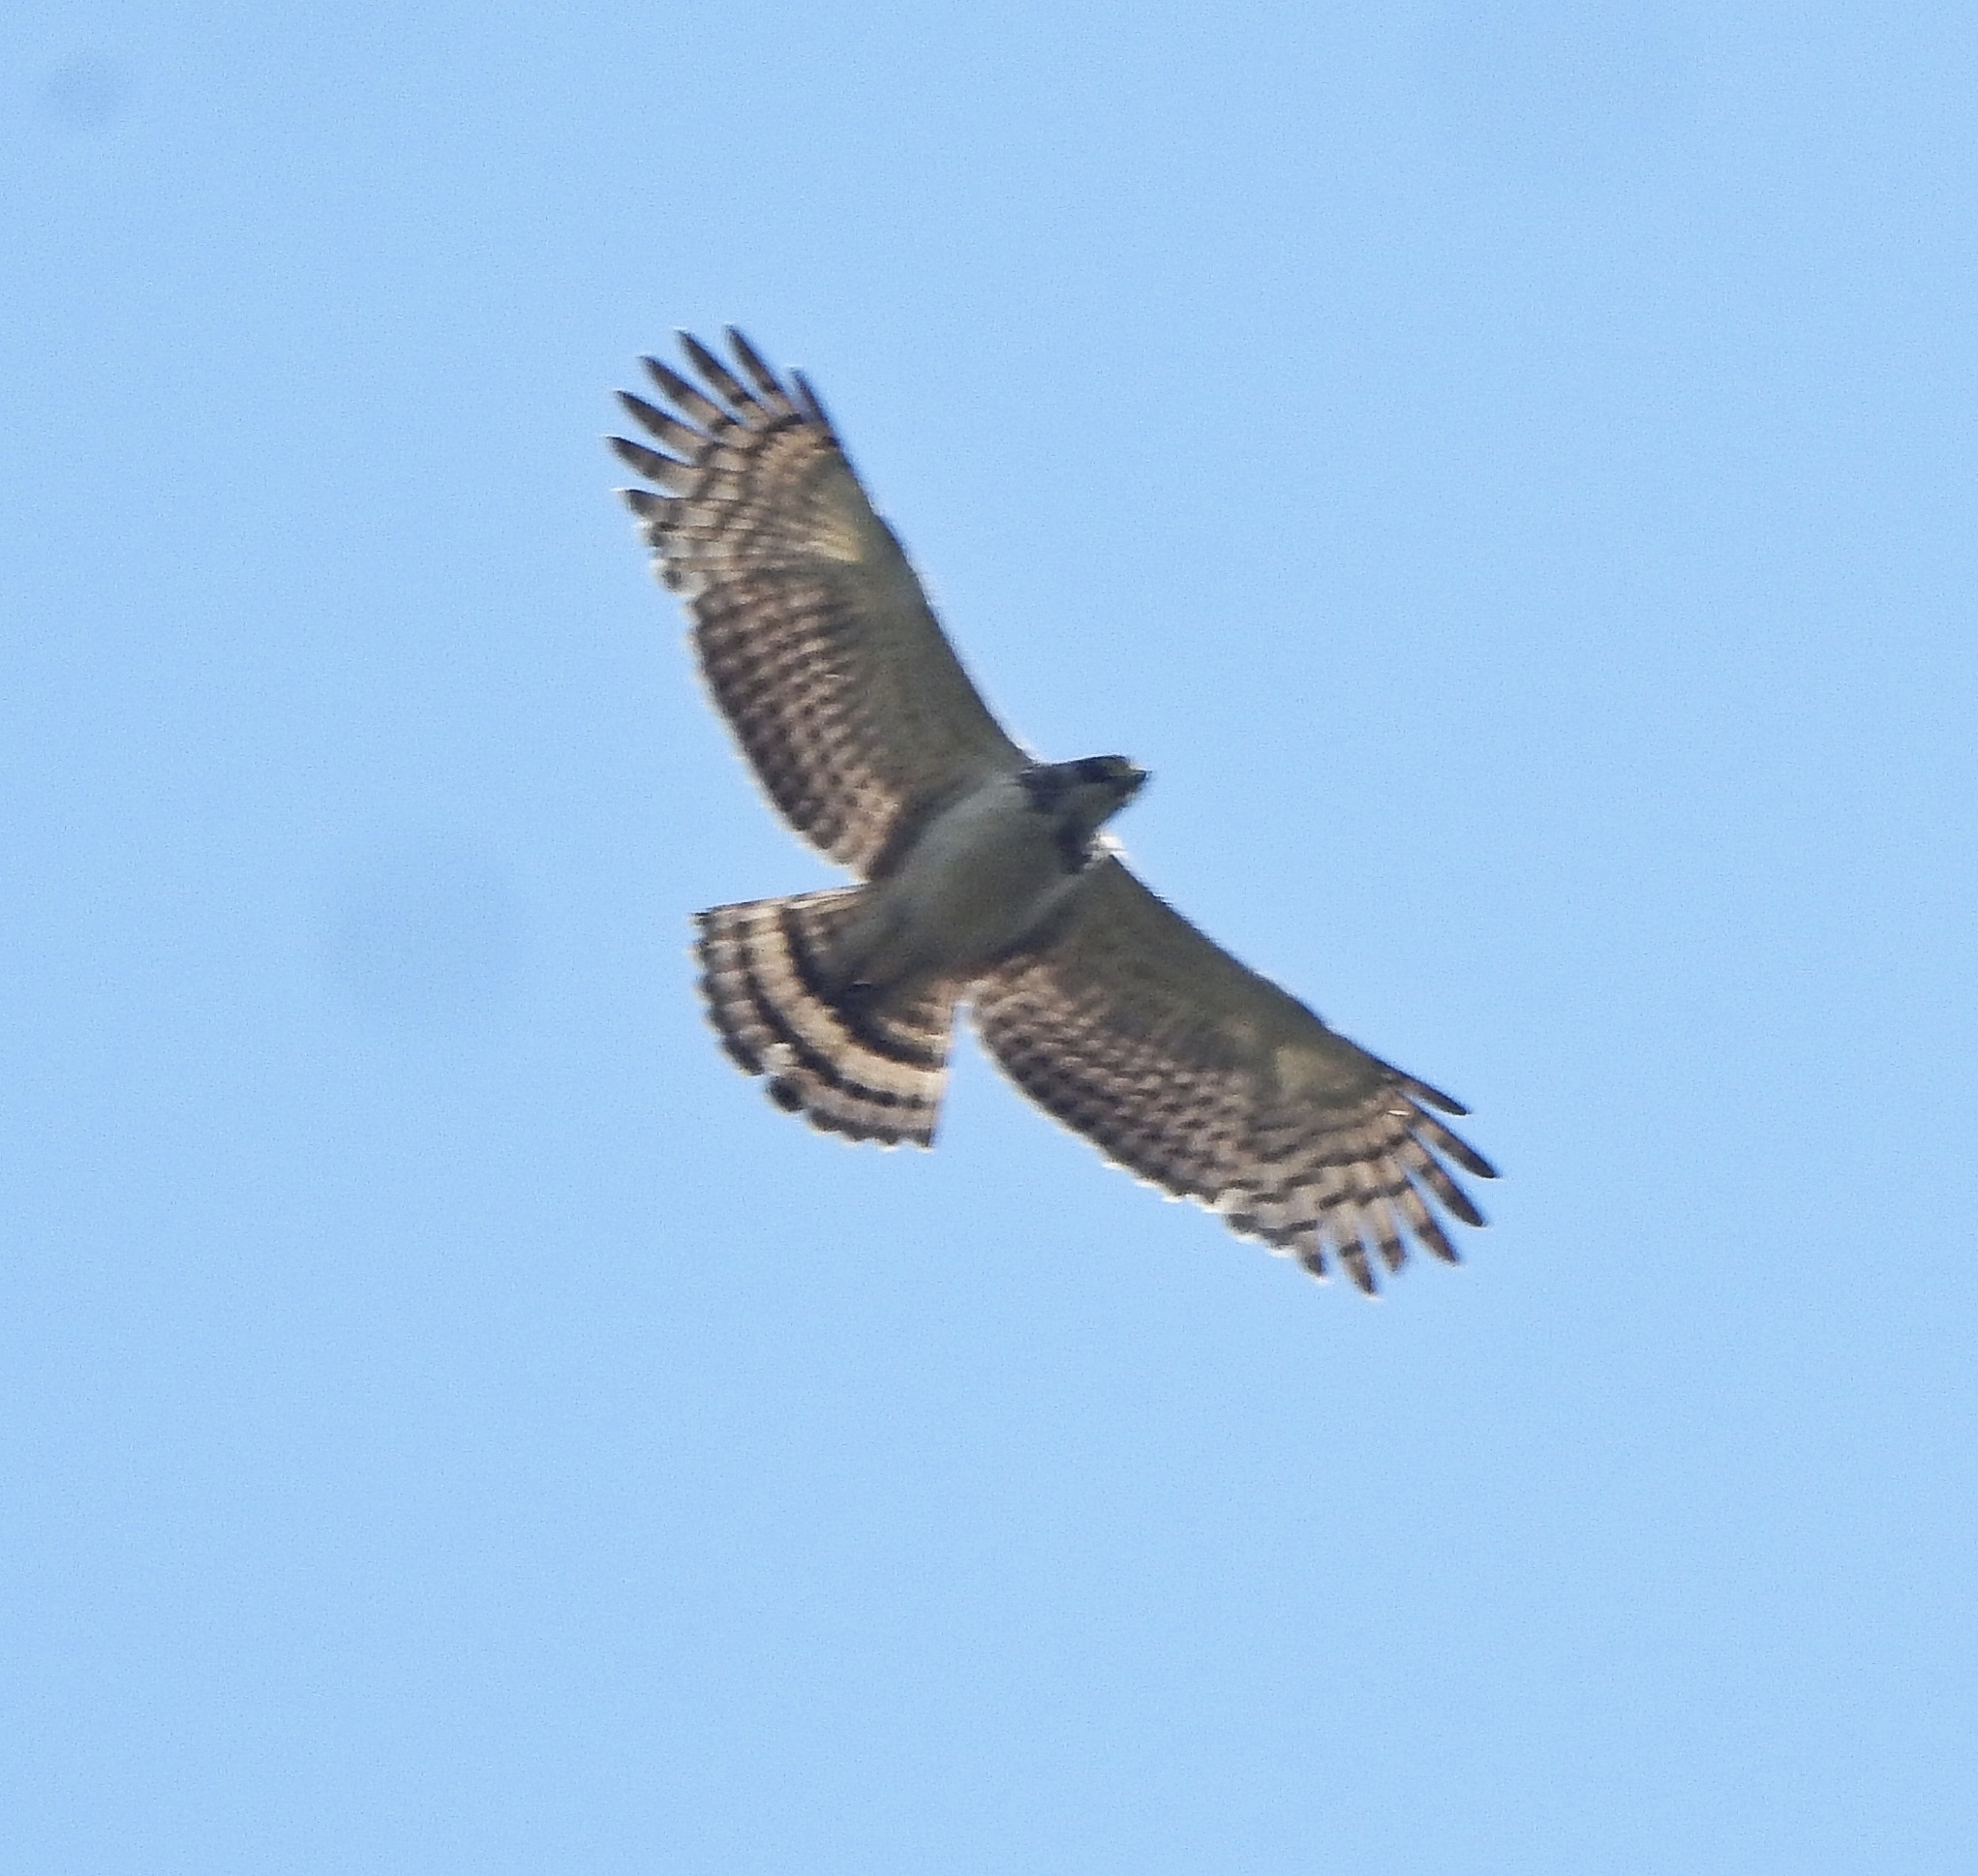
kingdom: Animalia
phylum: Chordata
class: Aves
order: Accipitriformes
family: Accipitridae
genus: Spilornis
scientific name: Spilornis cheela
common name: Crested serpent eagle
